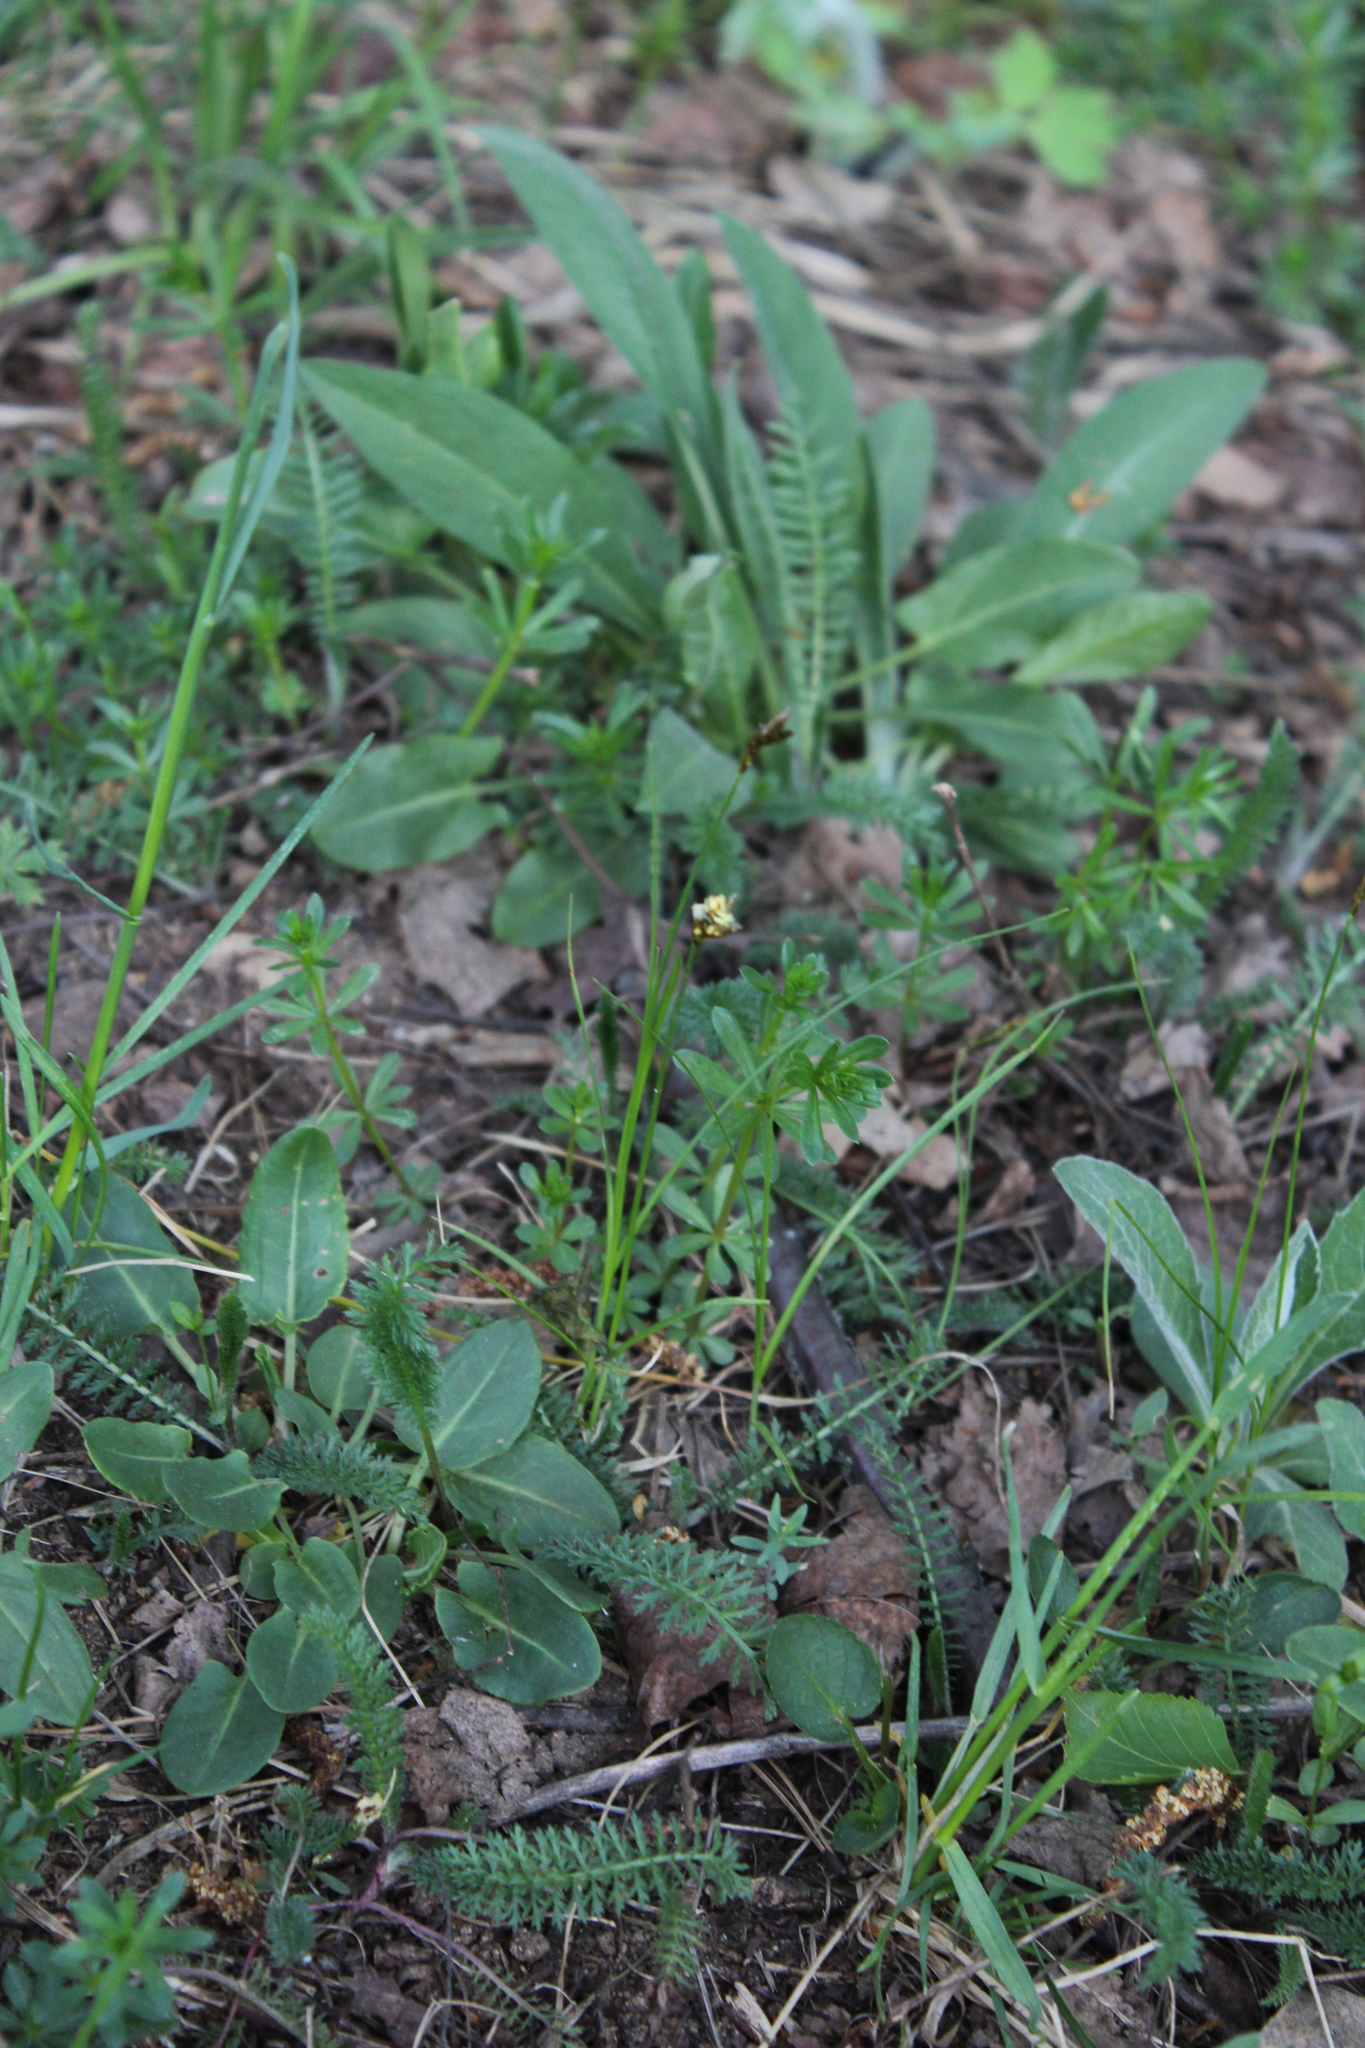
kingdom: Plantae
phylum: Tracheophyta
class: Liliopsida
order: Poales
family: Cyperaceae
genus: Carex
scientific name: Carex praecox
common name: Early sedge
